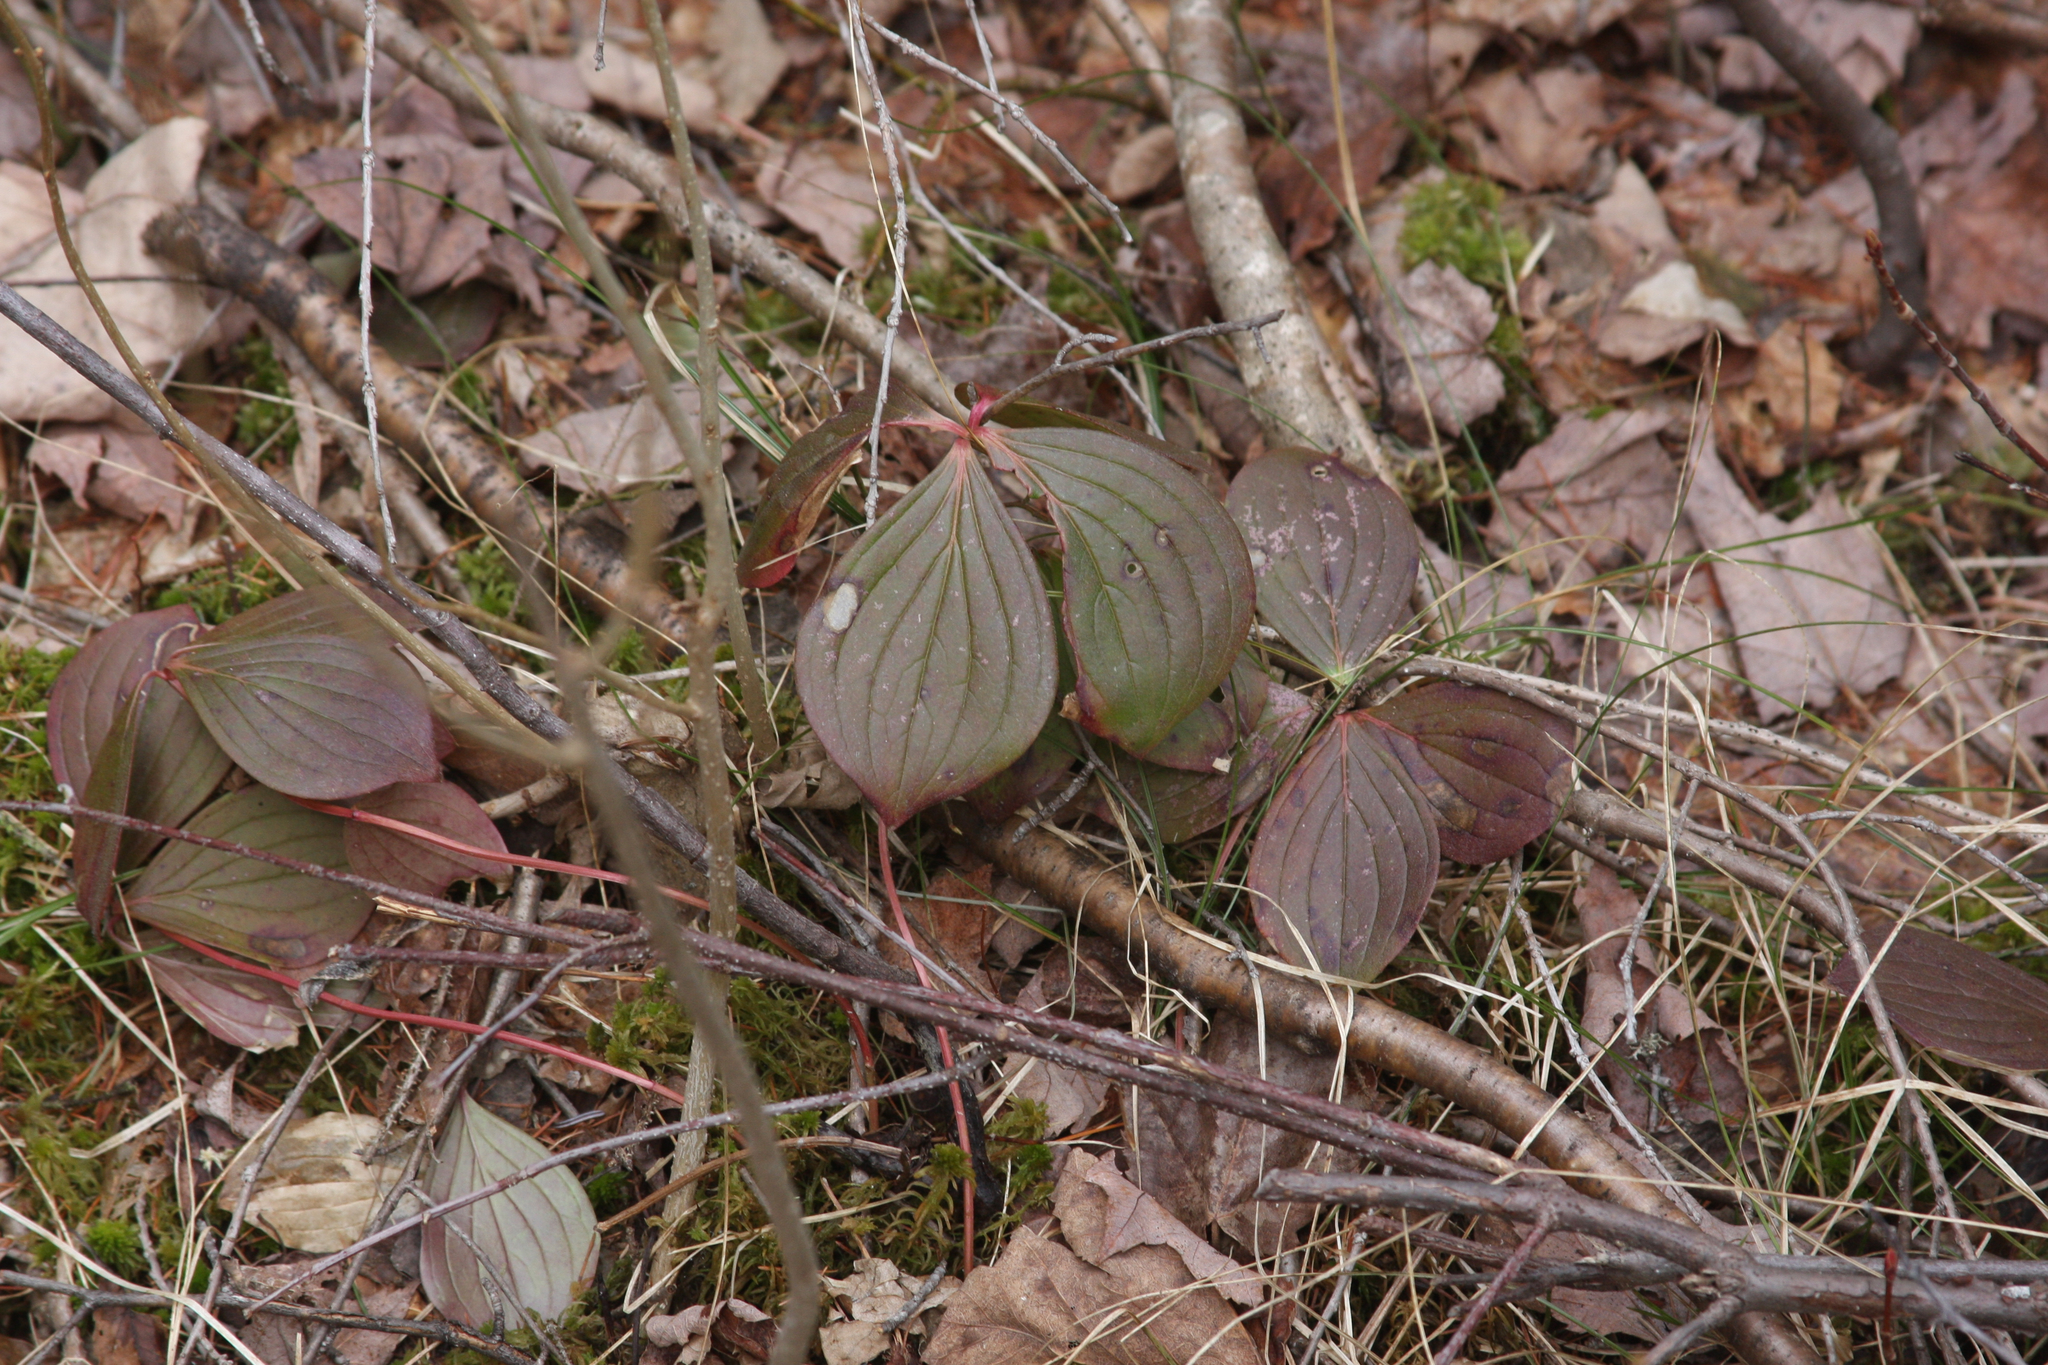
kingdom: Plantae
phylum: Tracheophyta
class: Magnoliopsida
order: Cornales
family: Cornaceae
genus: Cornus
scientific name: Cornus canadensis
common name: Creeping dogwood
